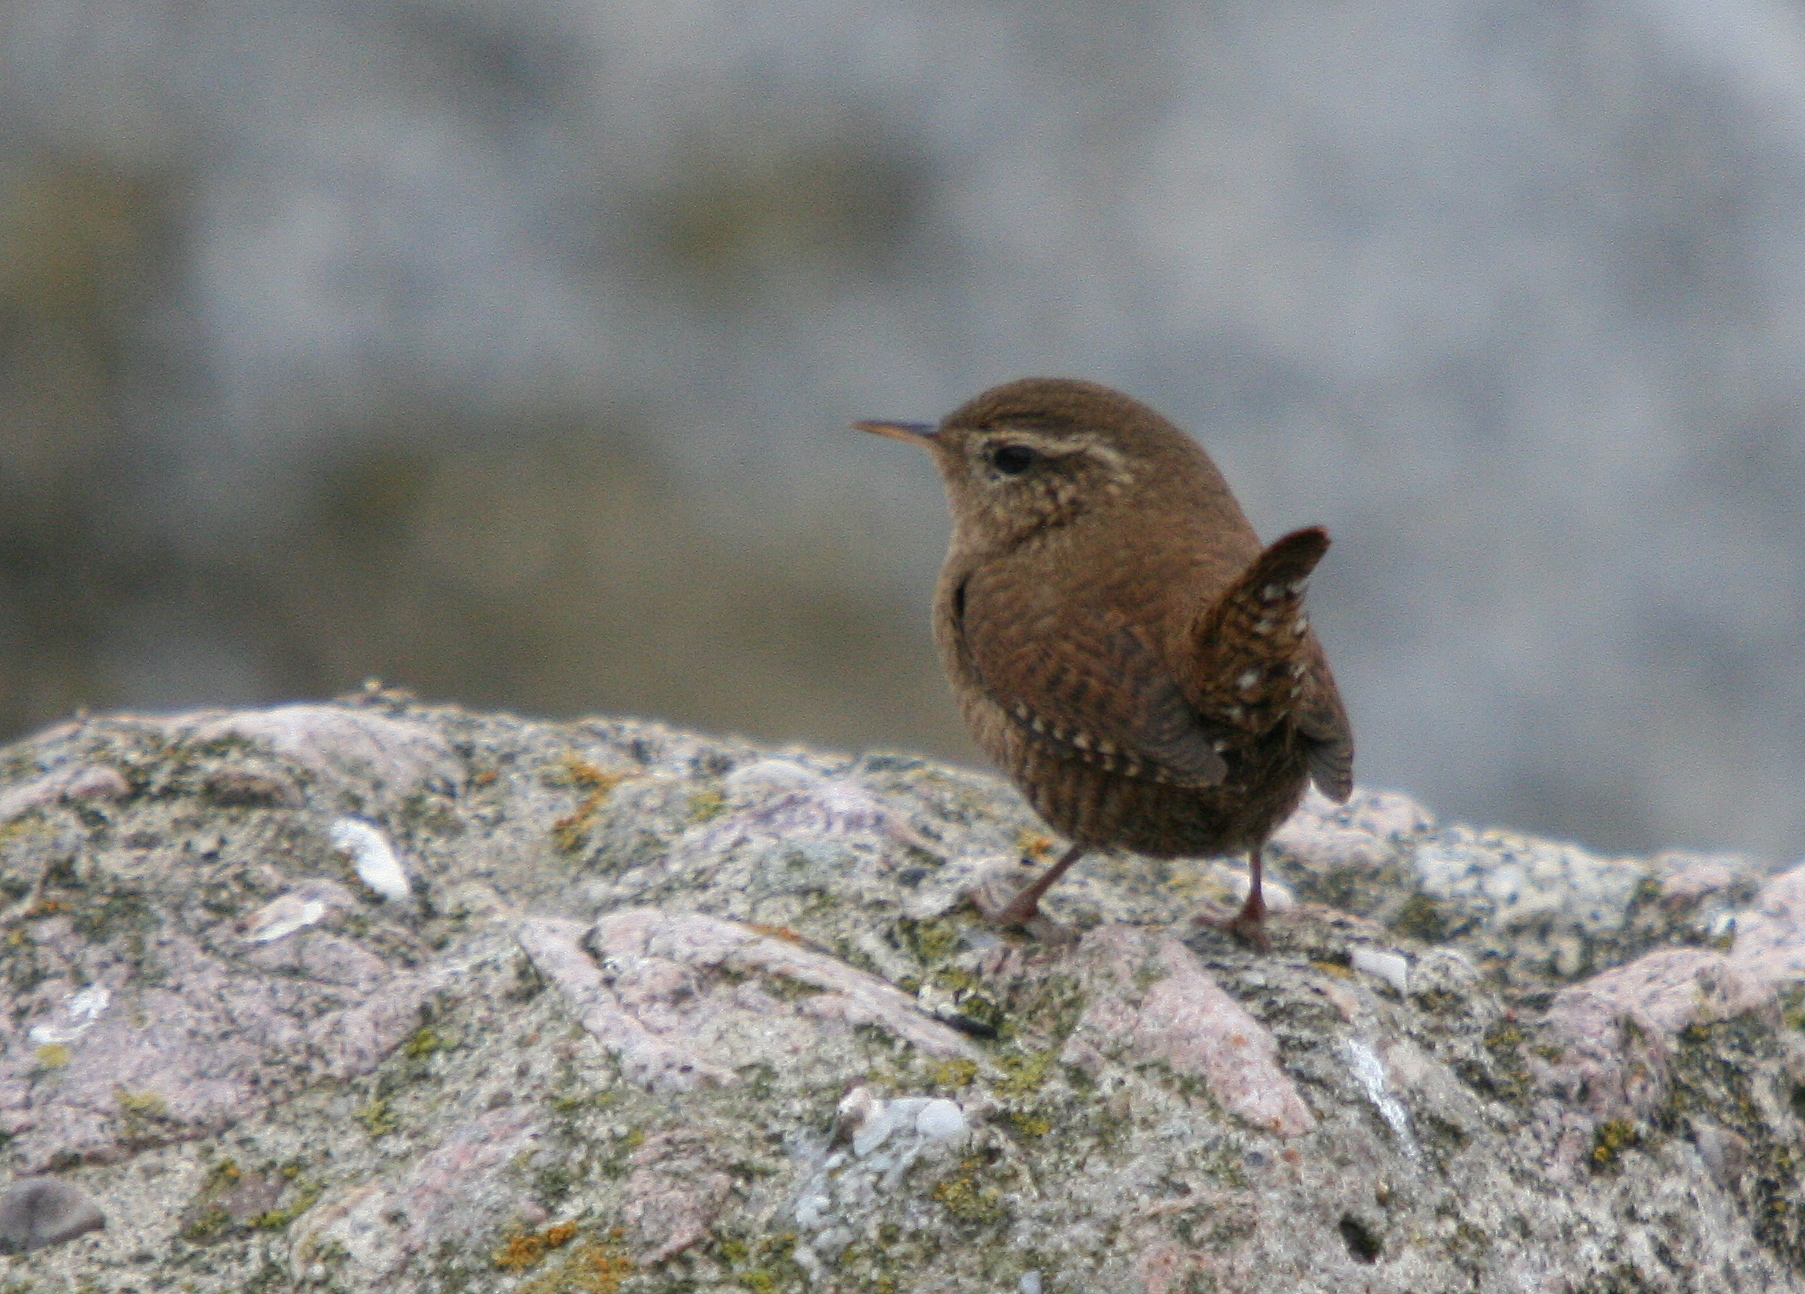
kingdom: Animalia
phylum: Chordata
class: Aves
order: Passeriformes
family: Troglodytidae
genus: Troglodytes
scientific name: Troglodytes troglodytes
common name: Eurasian wren
